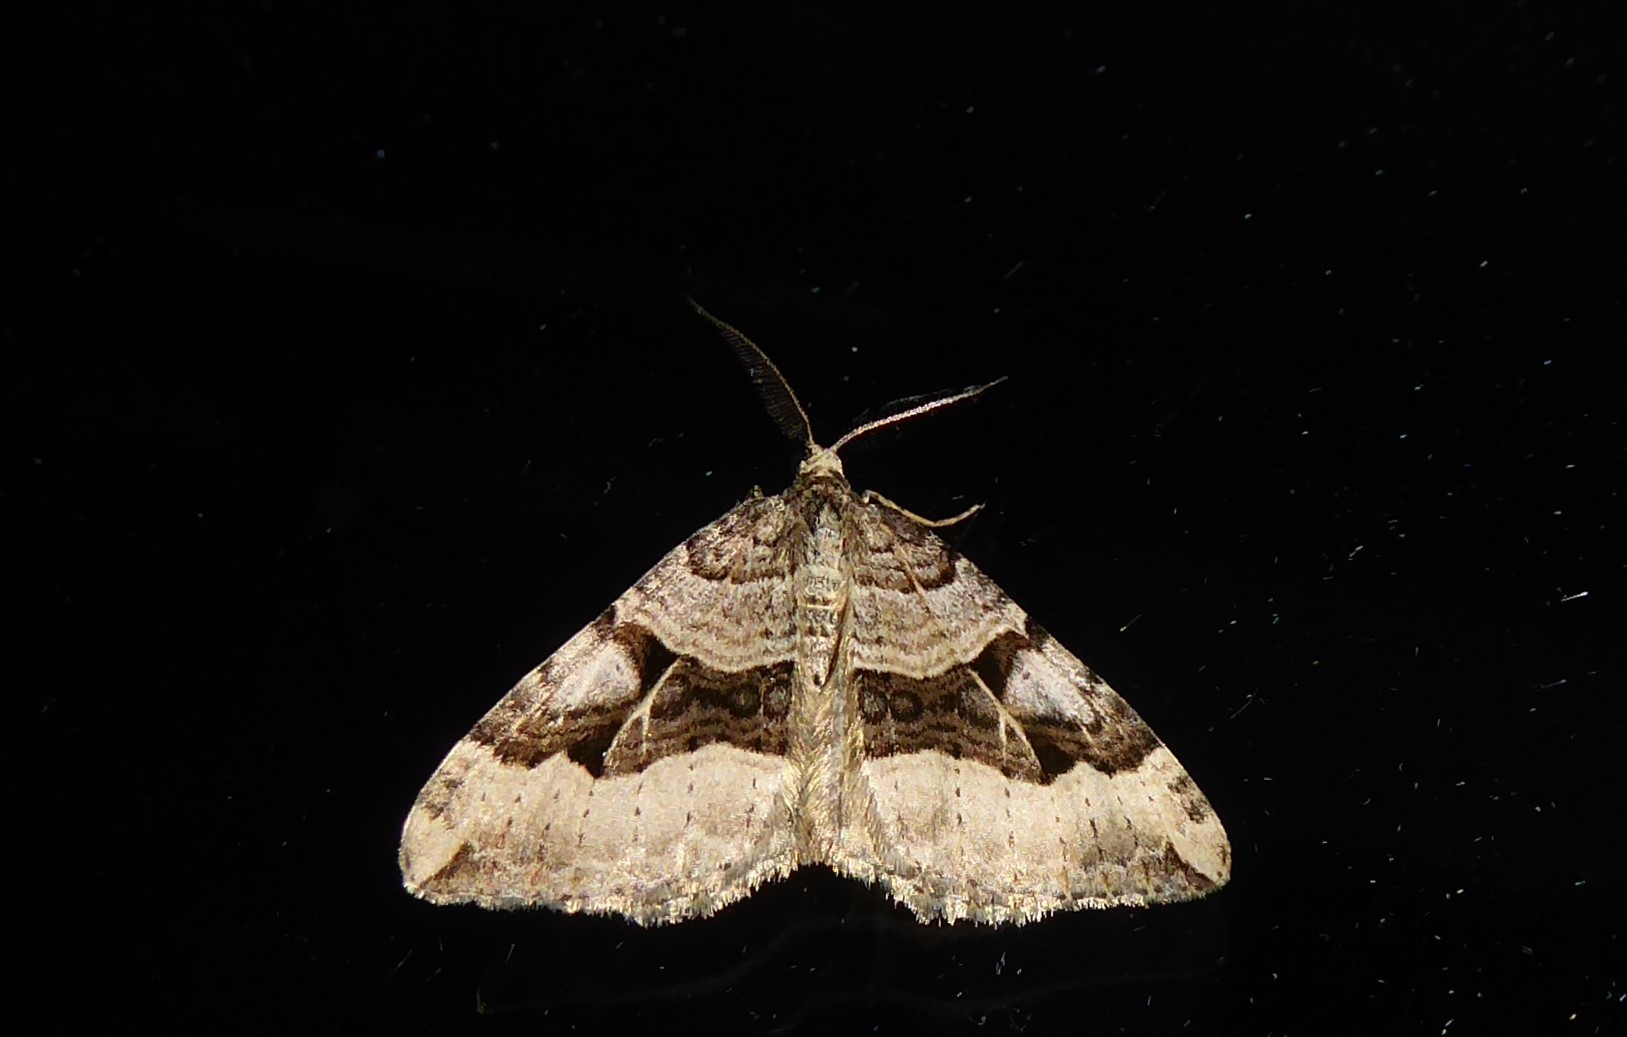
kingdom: Animalia
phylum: Arthropoda
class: Insecta
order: Lepidoptera
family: Geometridae
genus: Xanthorhoe
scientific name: Xanthorhoe semifissata
